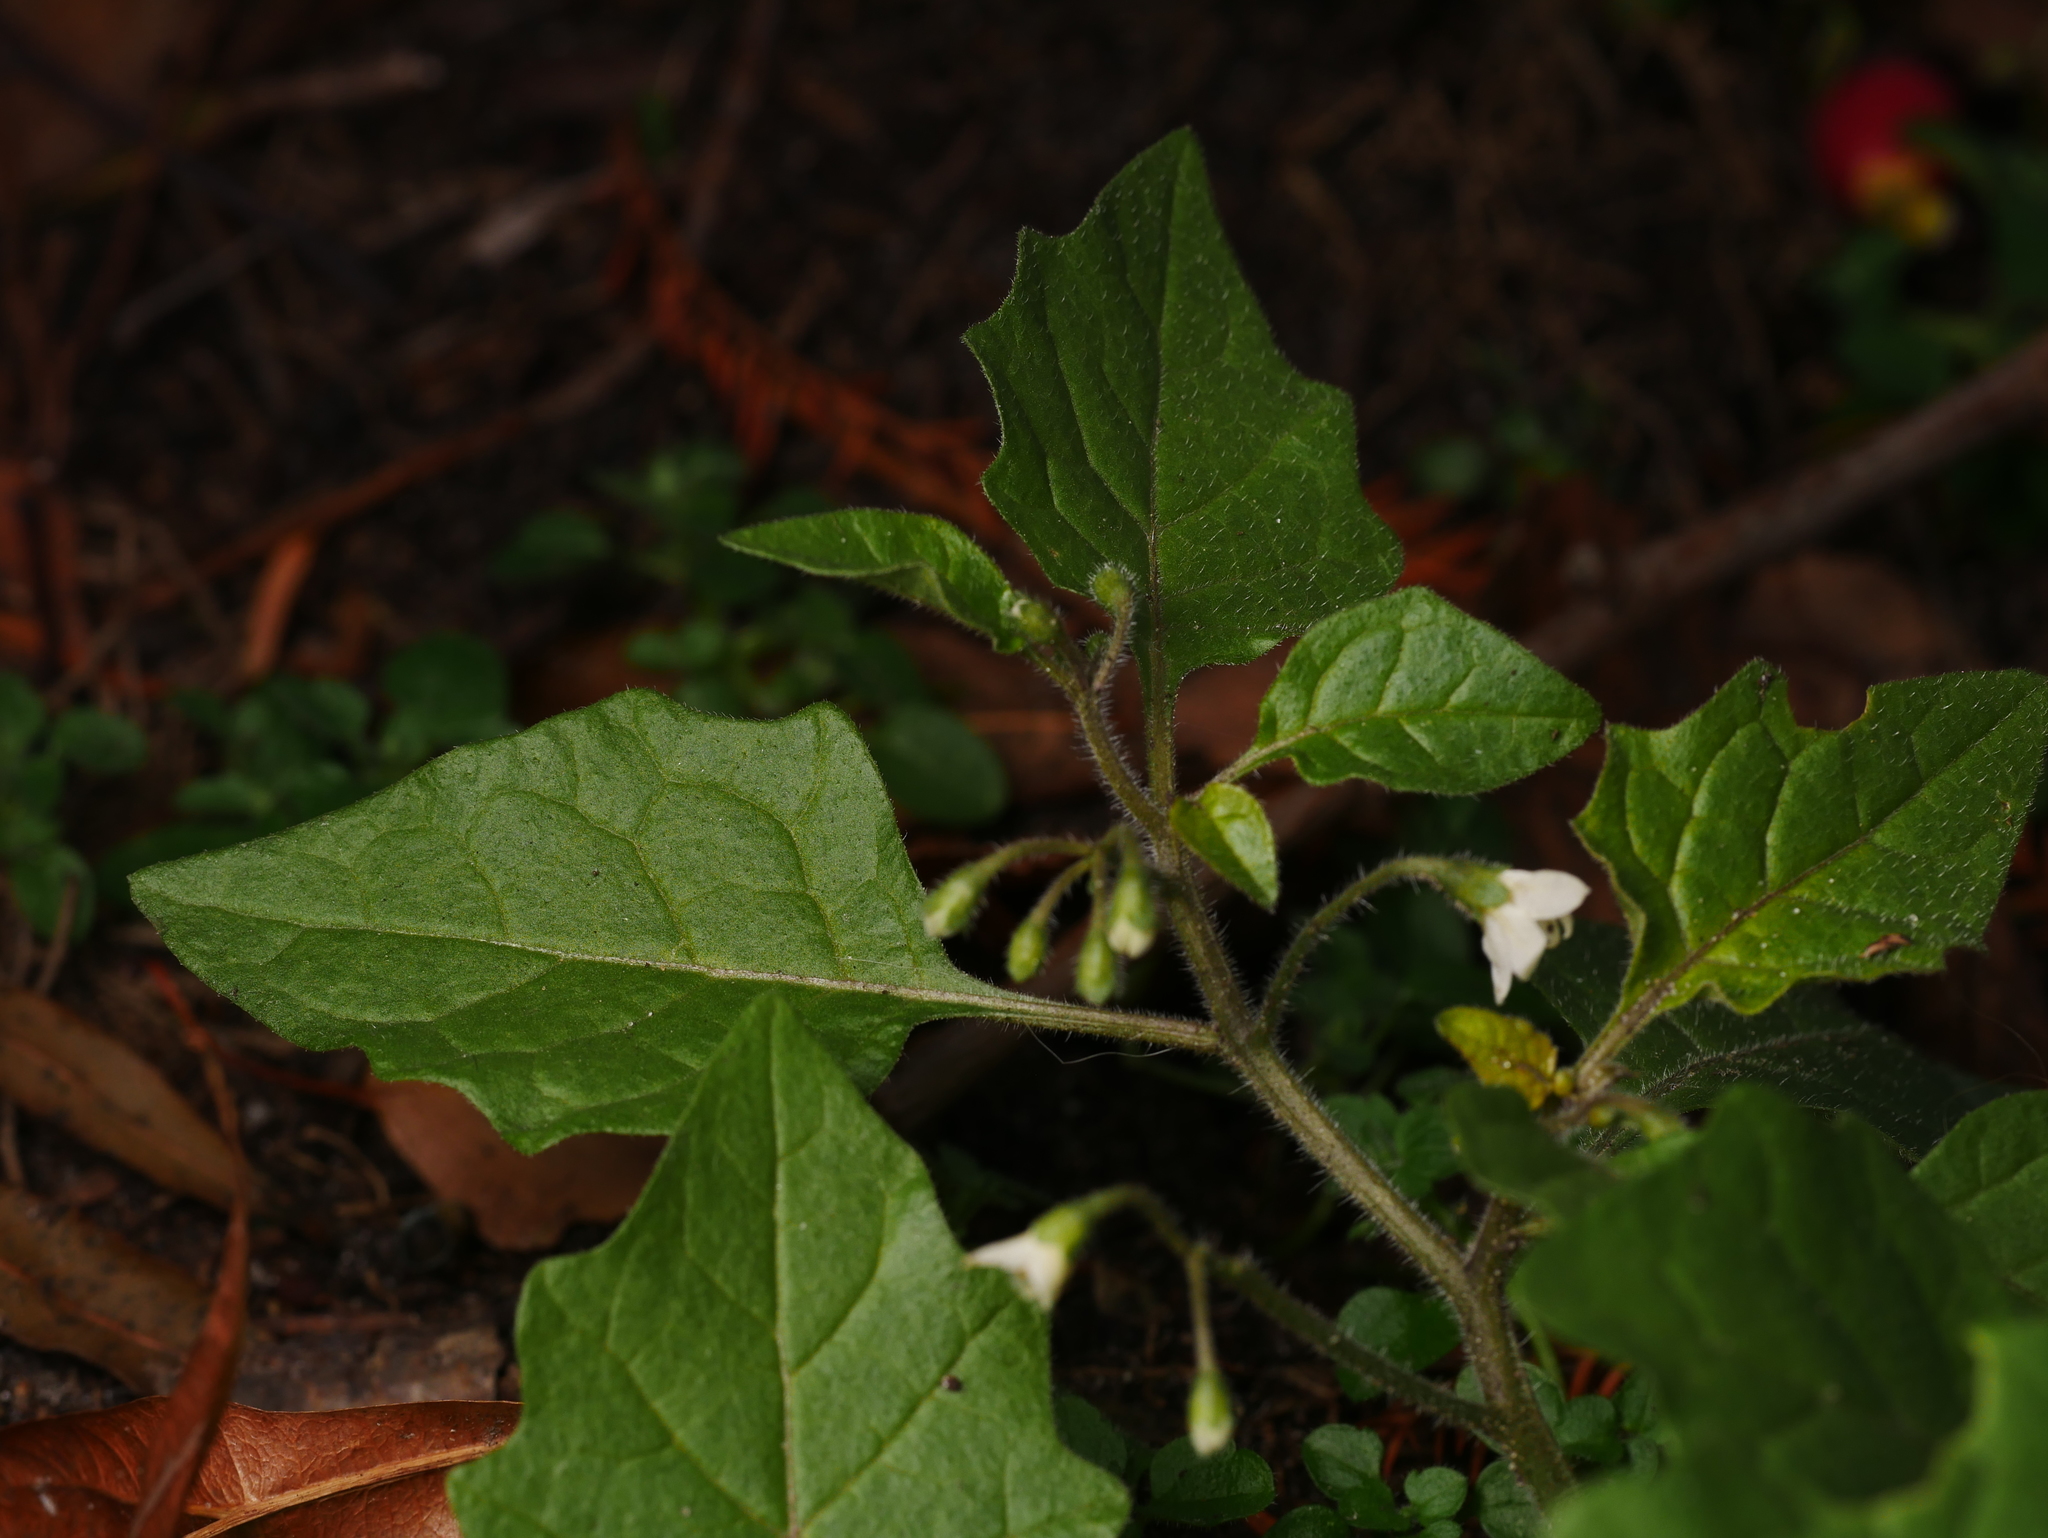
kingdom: Plantae
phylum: Tracheophyta
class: Magnoliopsida
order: Solanales
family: Solanaceae
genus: Solanum
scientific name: Solanum nigrum
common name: Black nightshade
